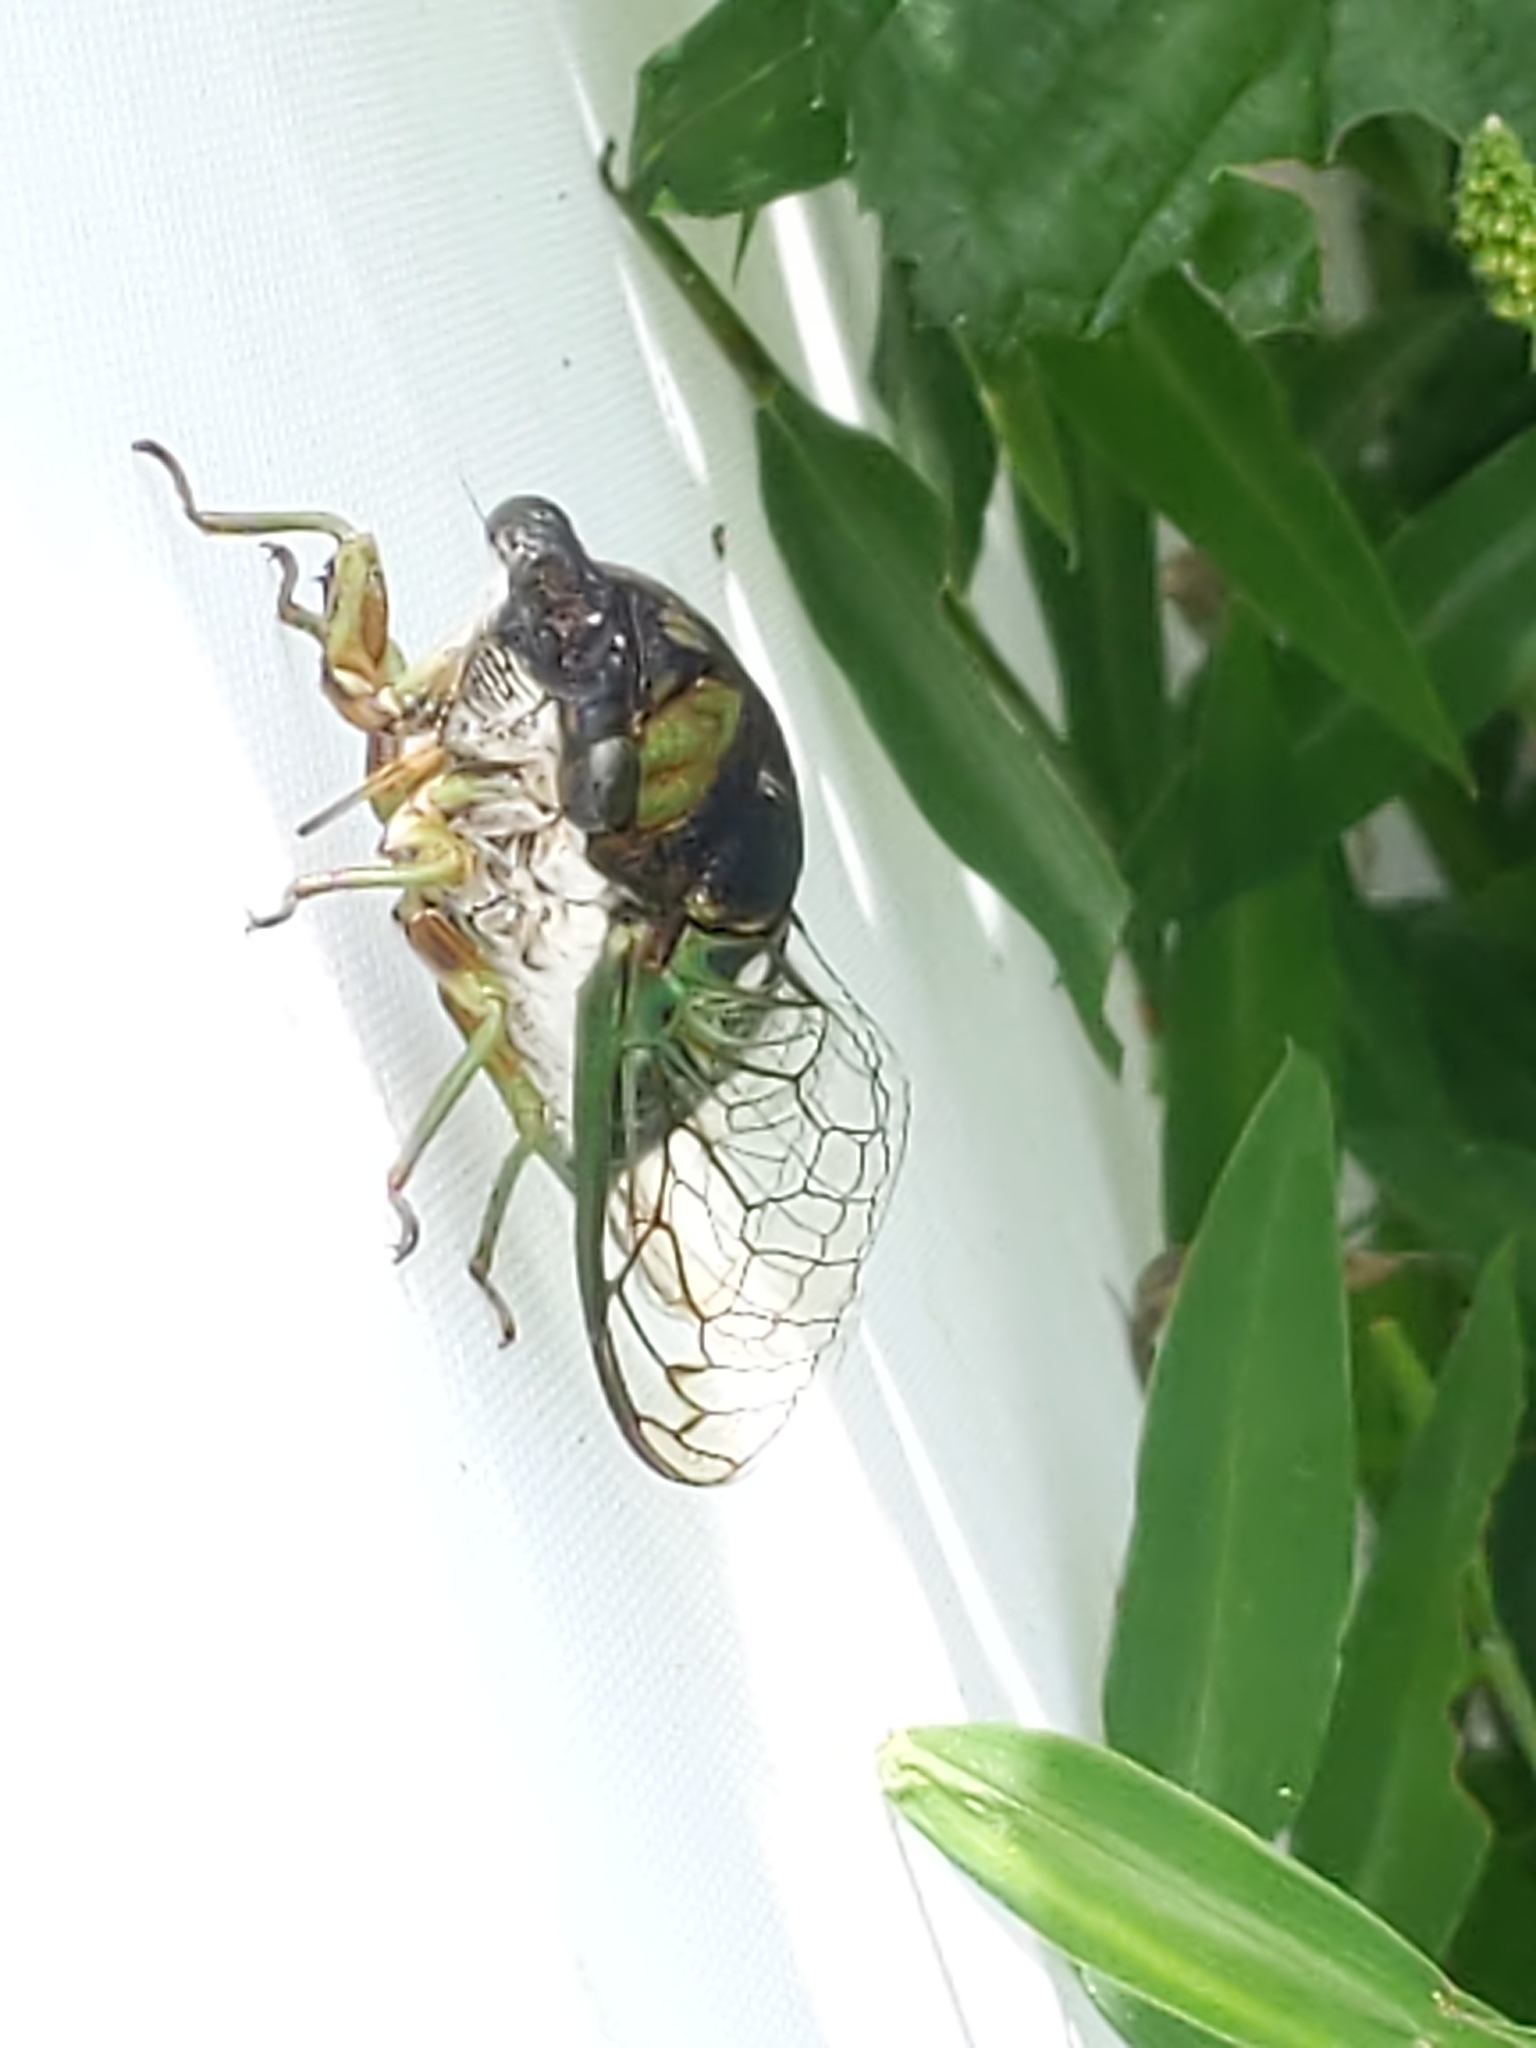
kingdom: Animalia
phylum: Arthropoda
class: Insecta
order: Hemiptera
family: Cicadidae
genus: Neotibicen
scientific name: Neotibicen tibicen
